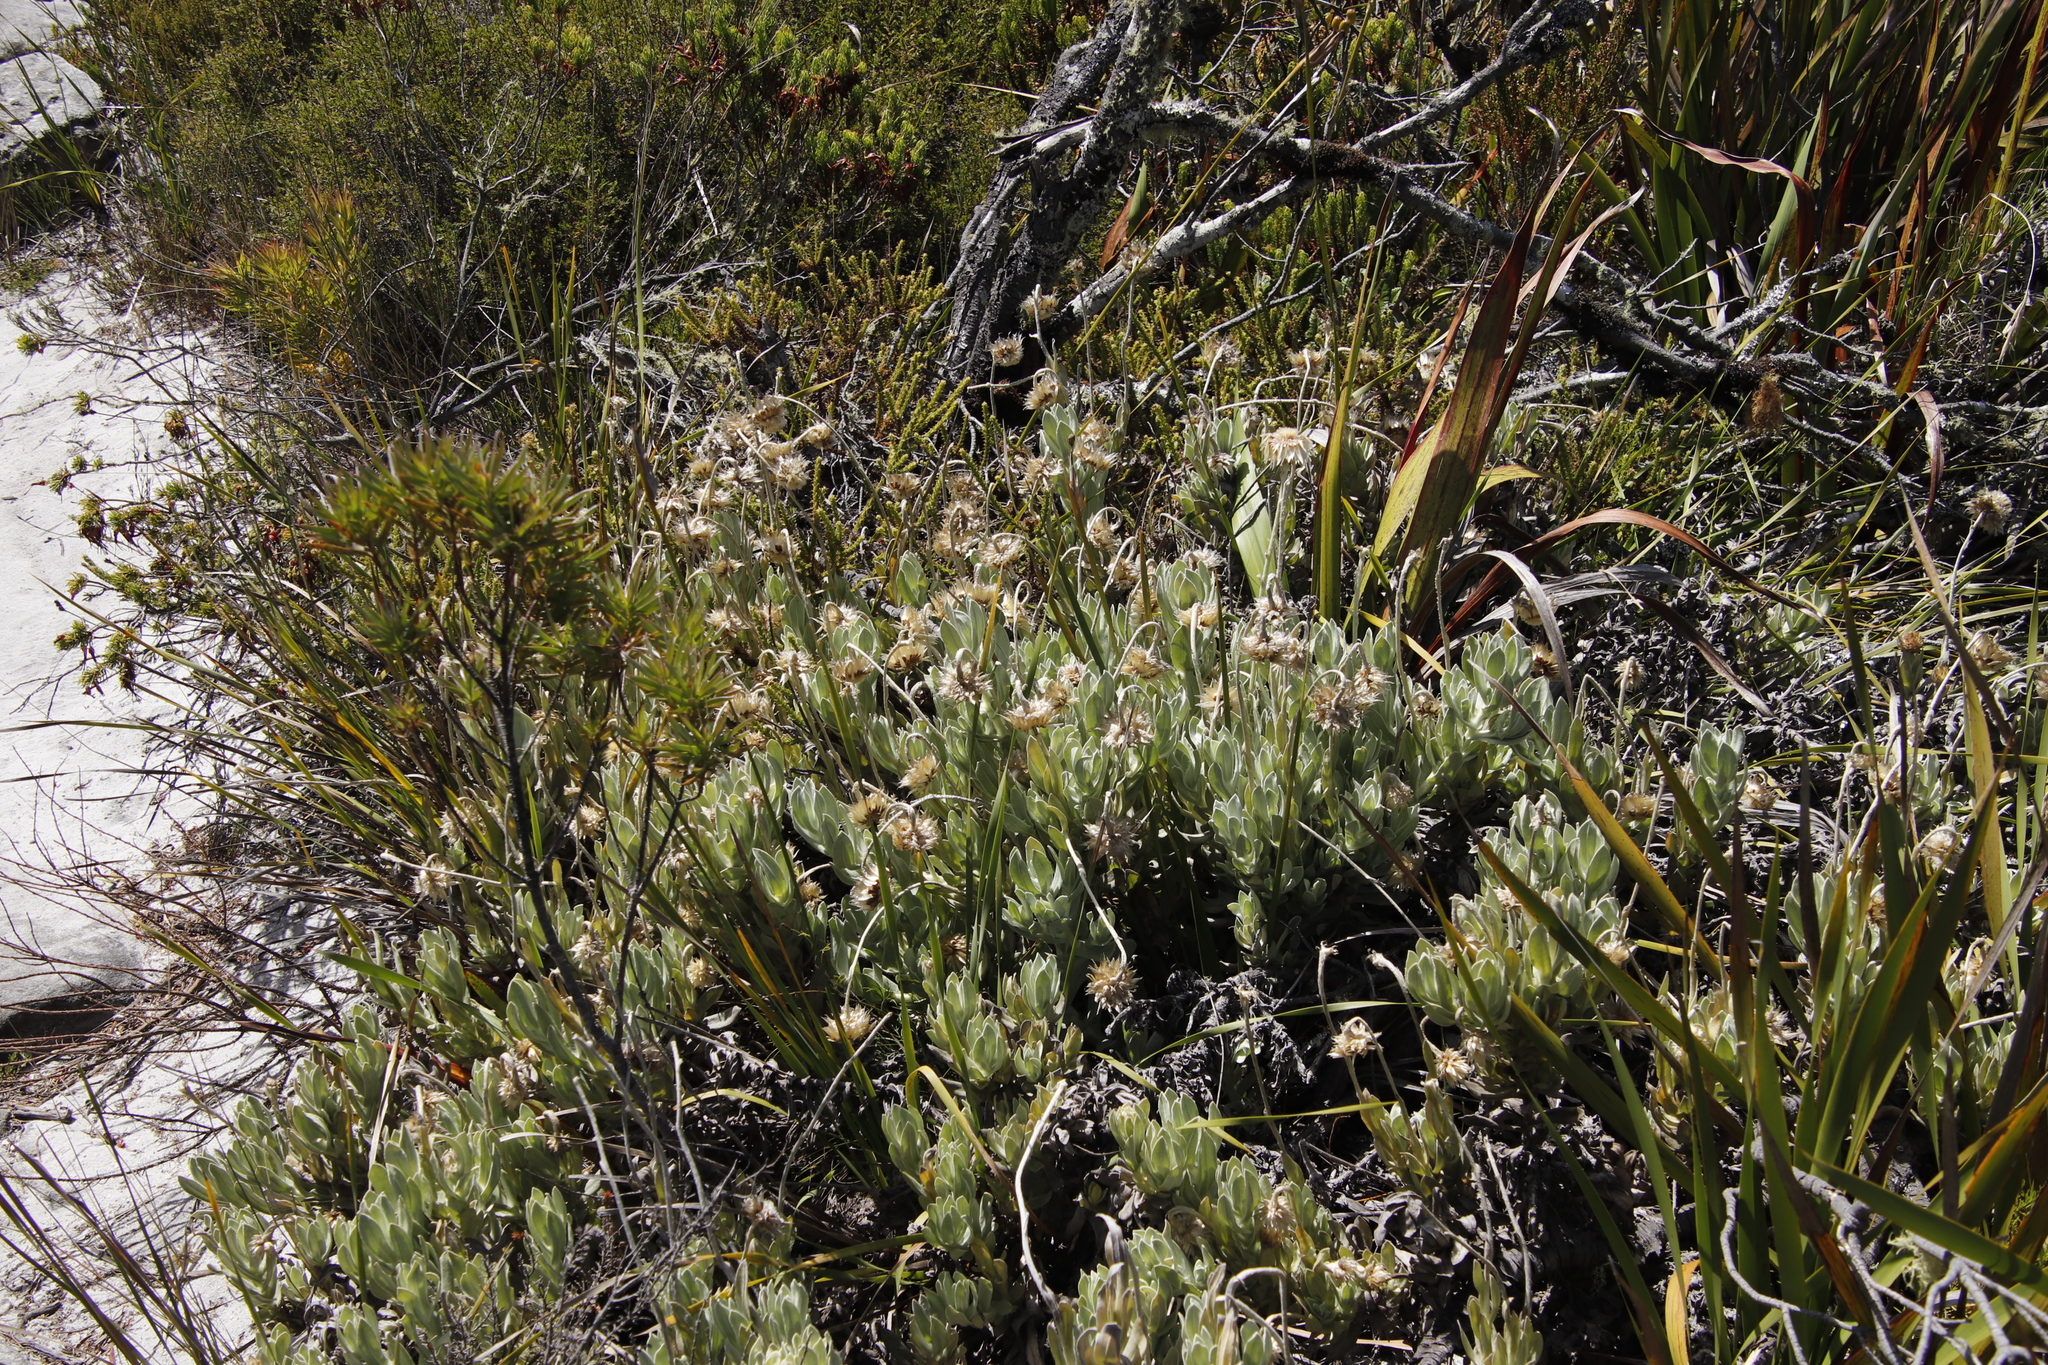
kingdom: Plantae
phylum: Tracheophyta
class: Magnoliopsida
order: Asterales
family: Asteraceae
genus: Syncarpha
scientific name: Syncarpha speciosissima
